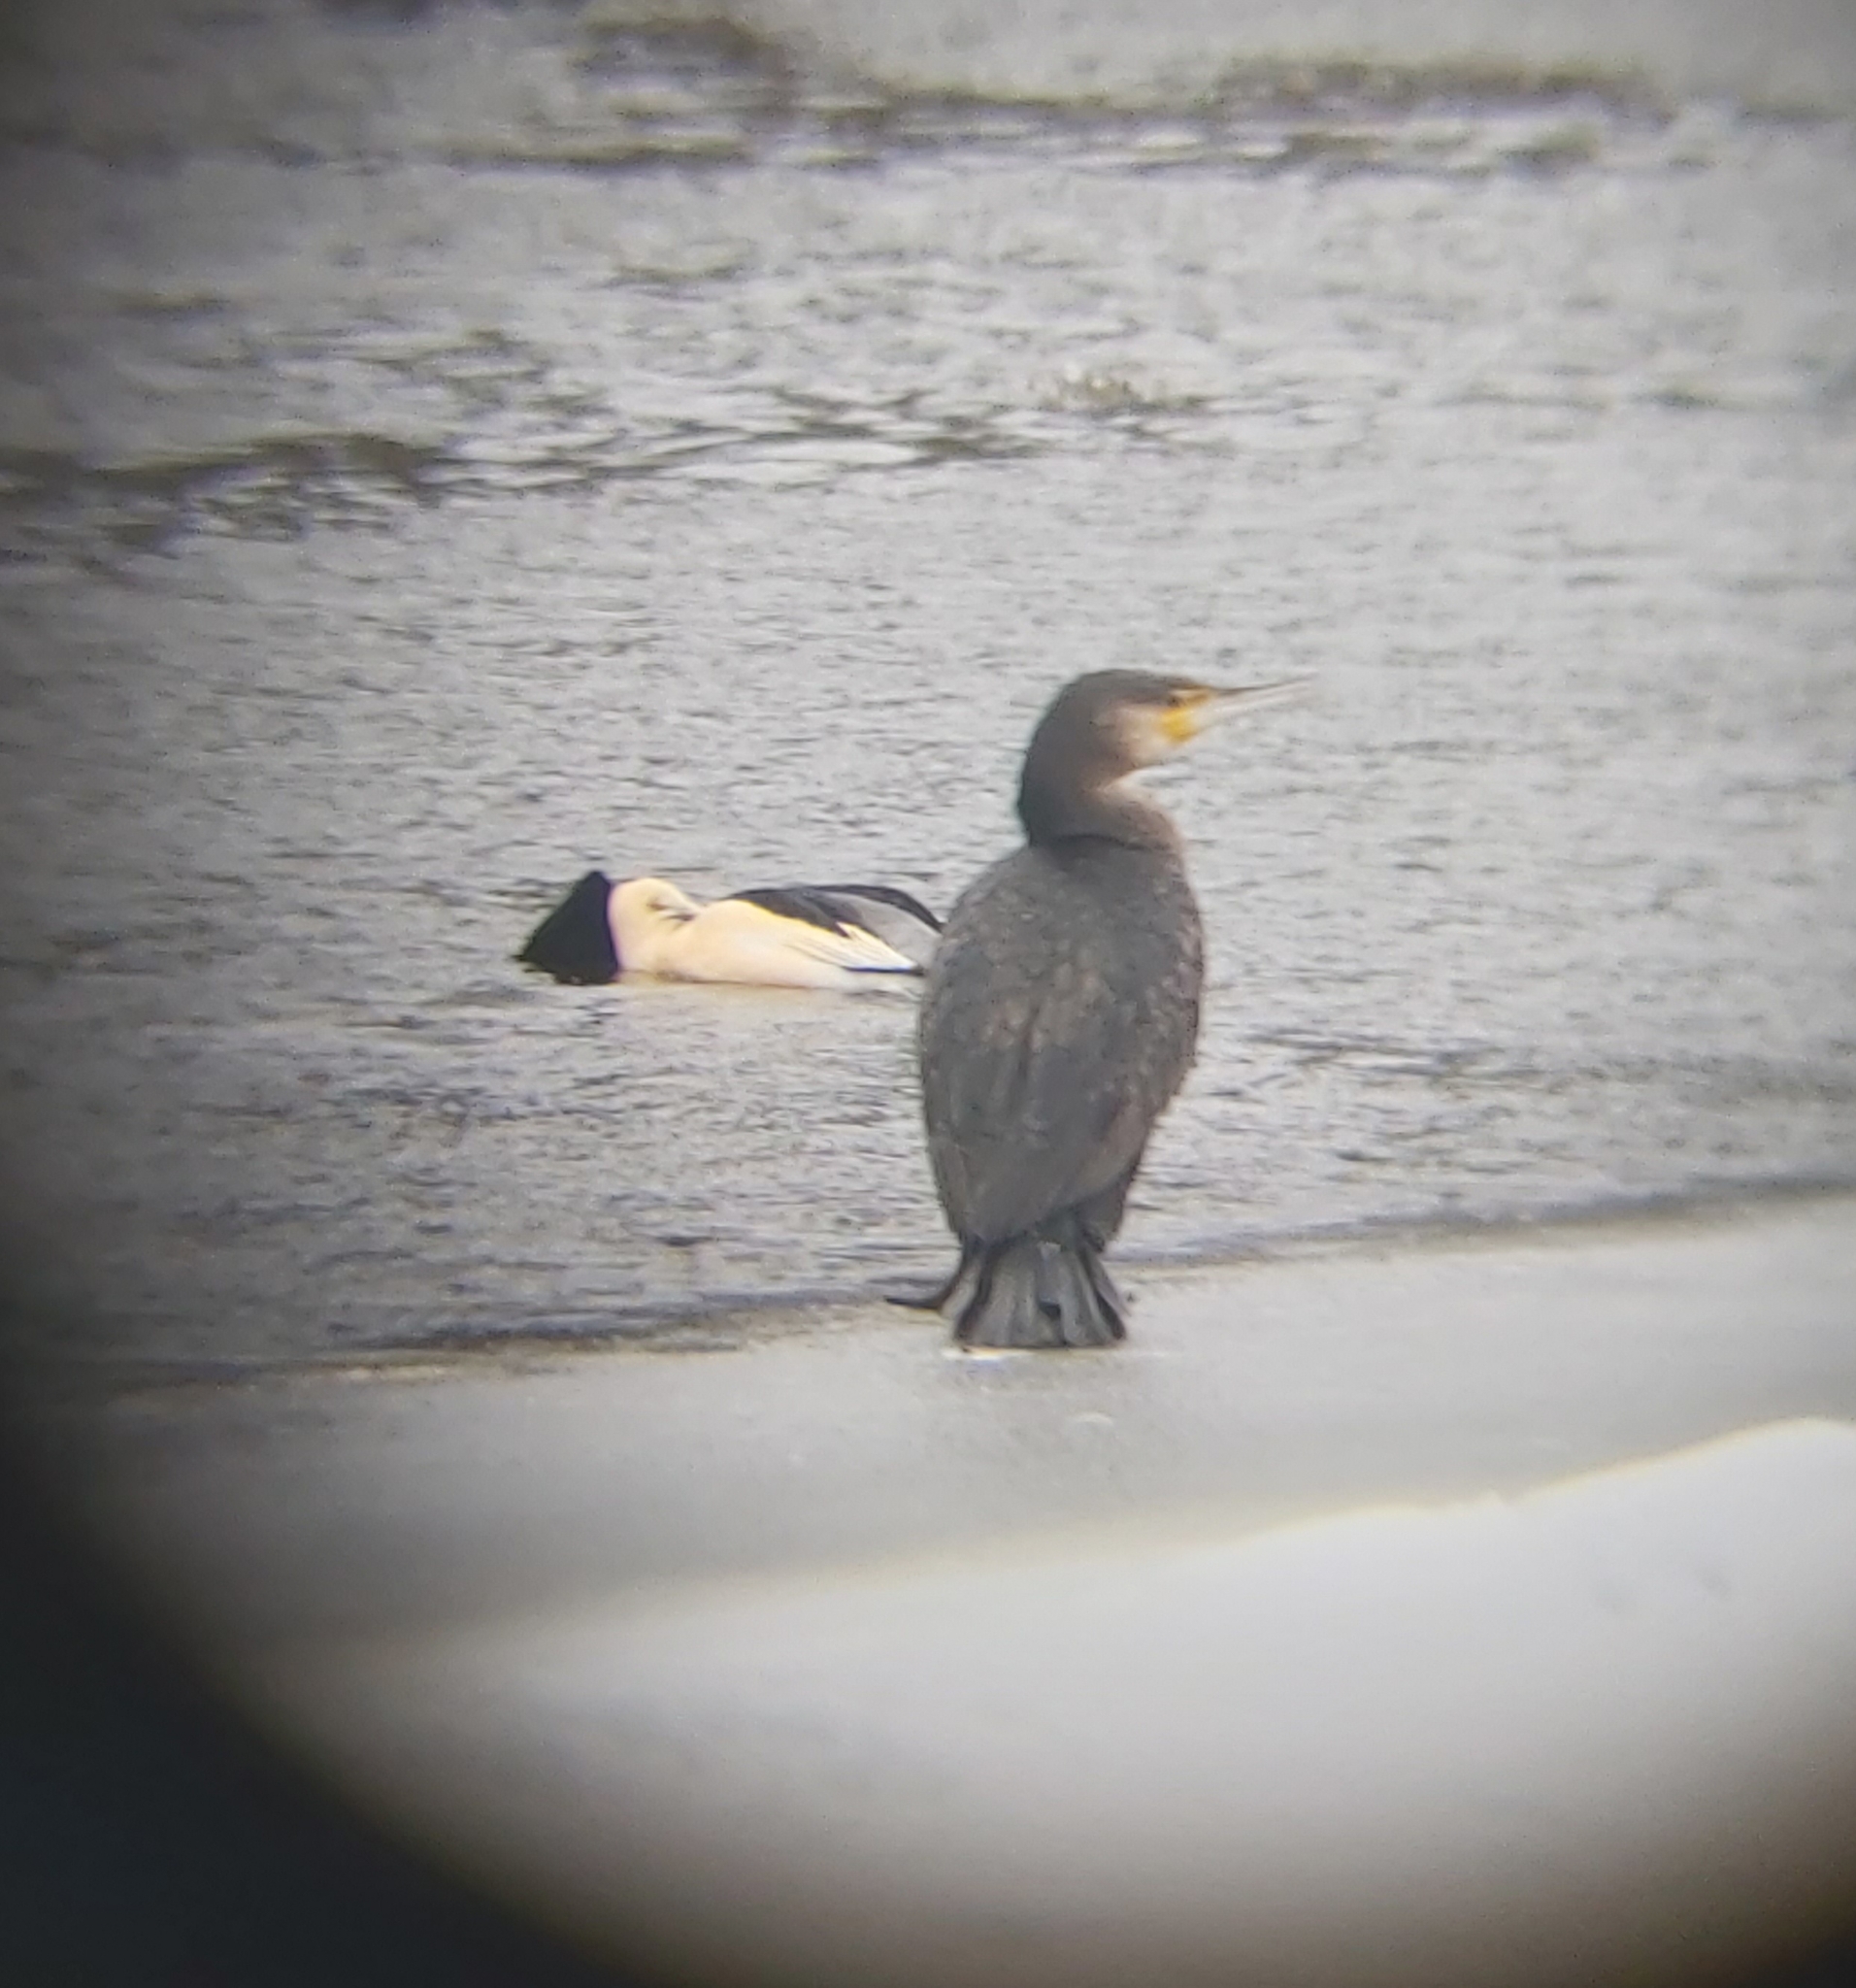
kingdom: Animalia
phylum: Chordata
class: Aves
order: Suliformes
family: Phalacrocoracidae
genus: Phalacrocorax
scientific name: Phalacrocorax carbo
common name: Great cormorant
